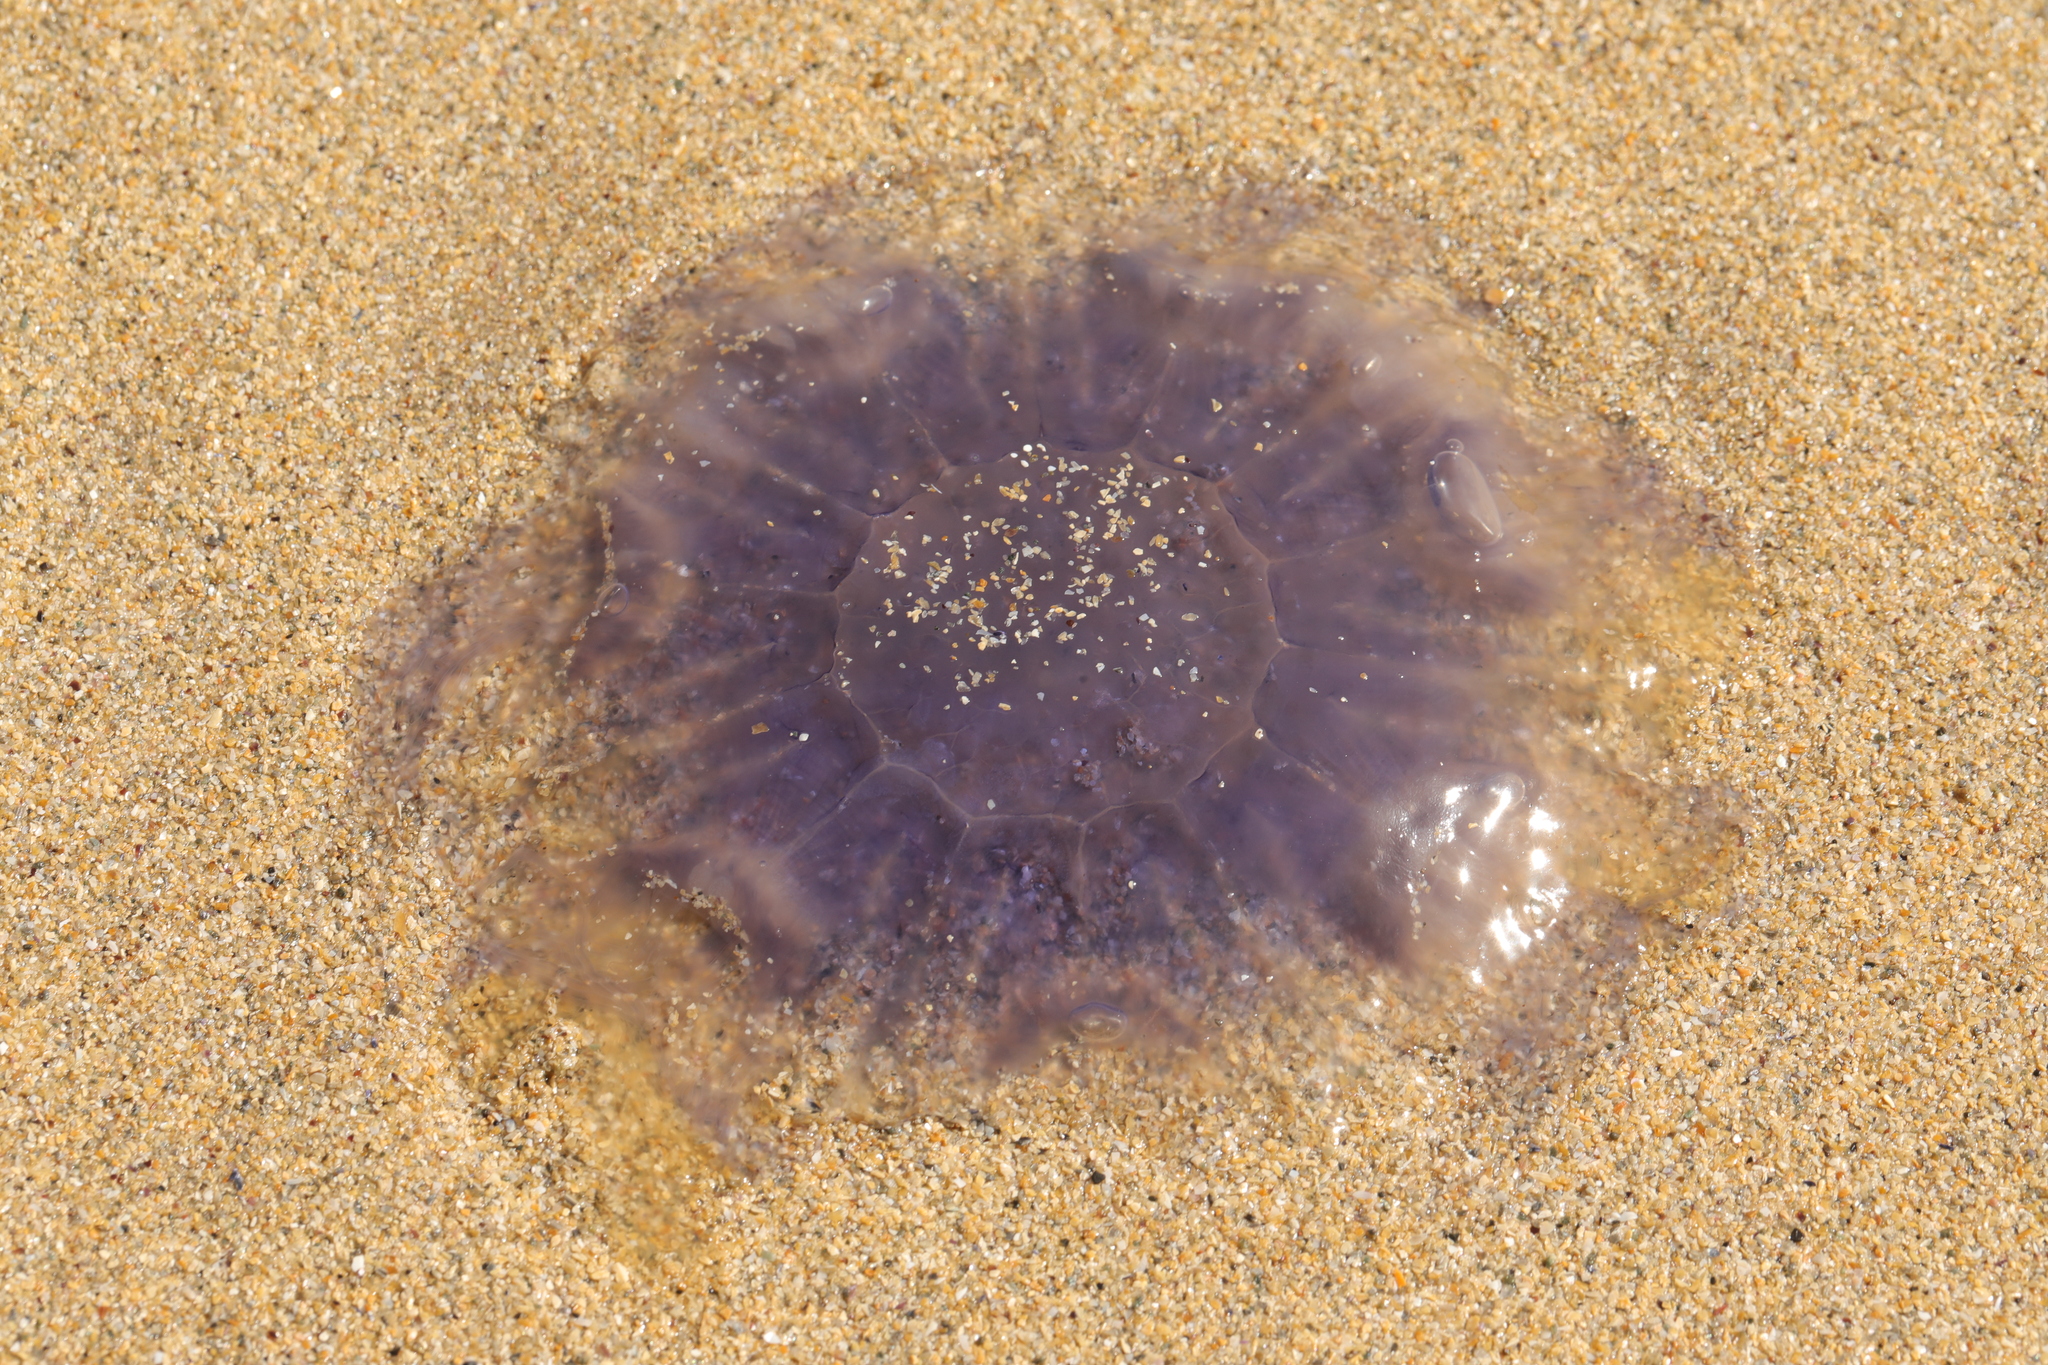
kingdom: Animalia
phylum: Cnidaria
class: Scyphozoa
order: Semaeostomeae
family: Cyaneidae
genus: Cyanea
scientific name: Cyanea lamarckii
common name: Blue jellyfish
